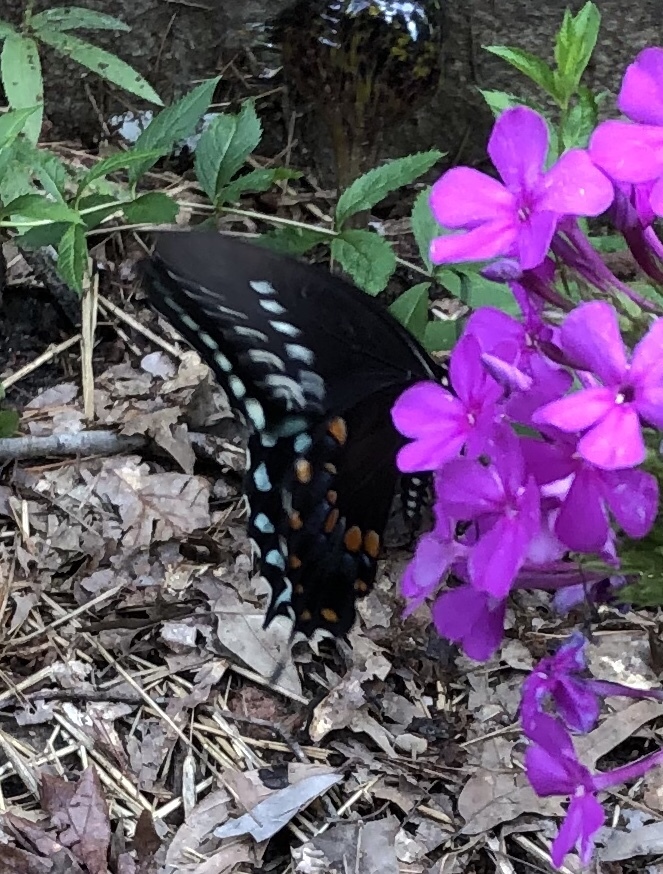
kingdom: Animalia
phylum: Arthropoda
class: Insecta
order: Lepidoptera
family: Papilionidae
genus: Papilio
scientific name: Papilio troilus
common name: Spicebush swallowtail
